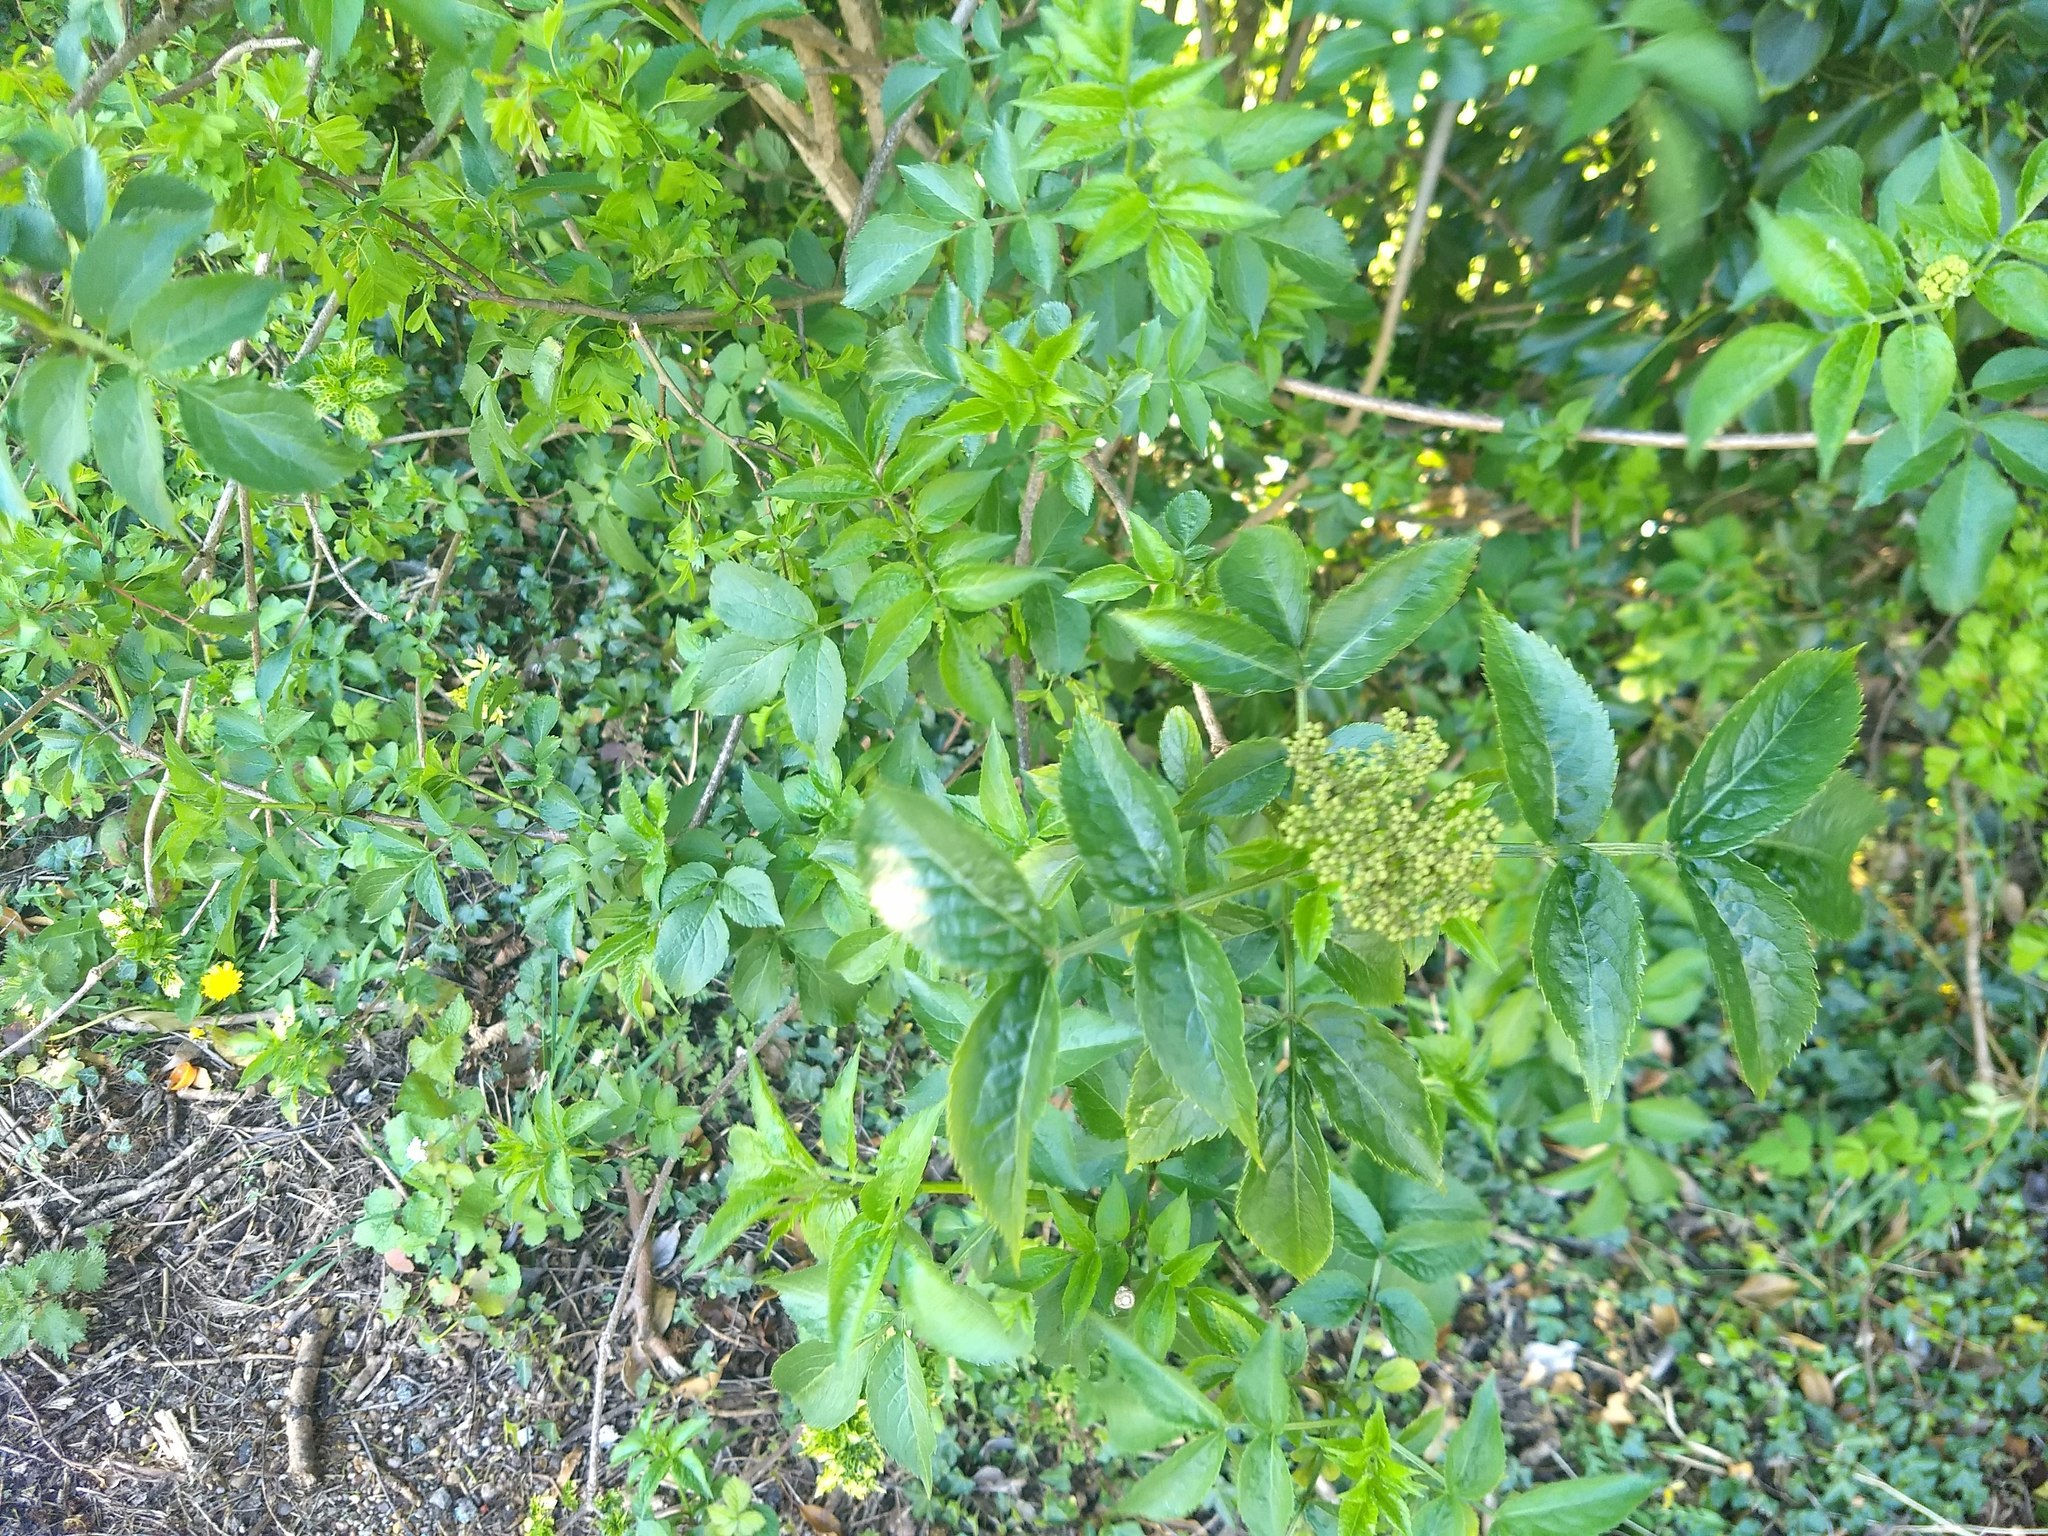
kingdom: Plantae
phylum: Tracheophyta
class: Magnoliopsida
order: Dipsacales
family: Viburnaceae
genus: Sambucus
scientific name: Sambucus nigra
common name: Elder
